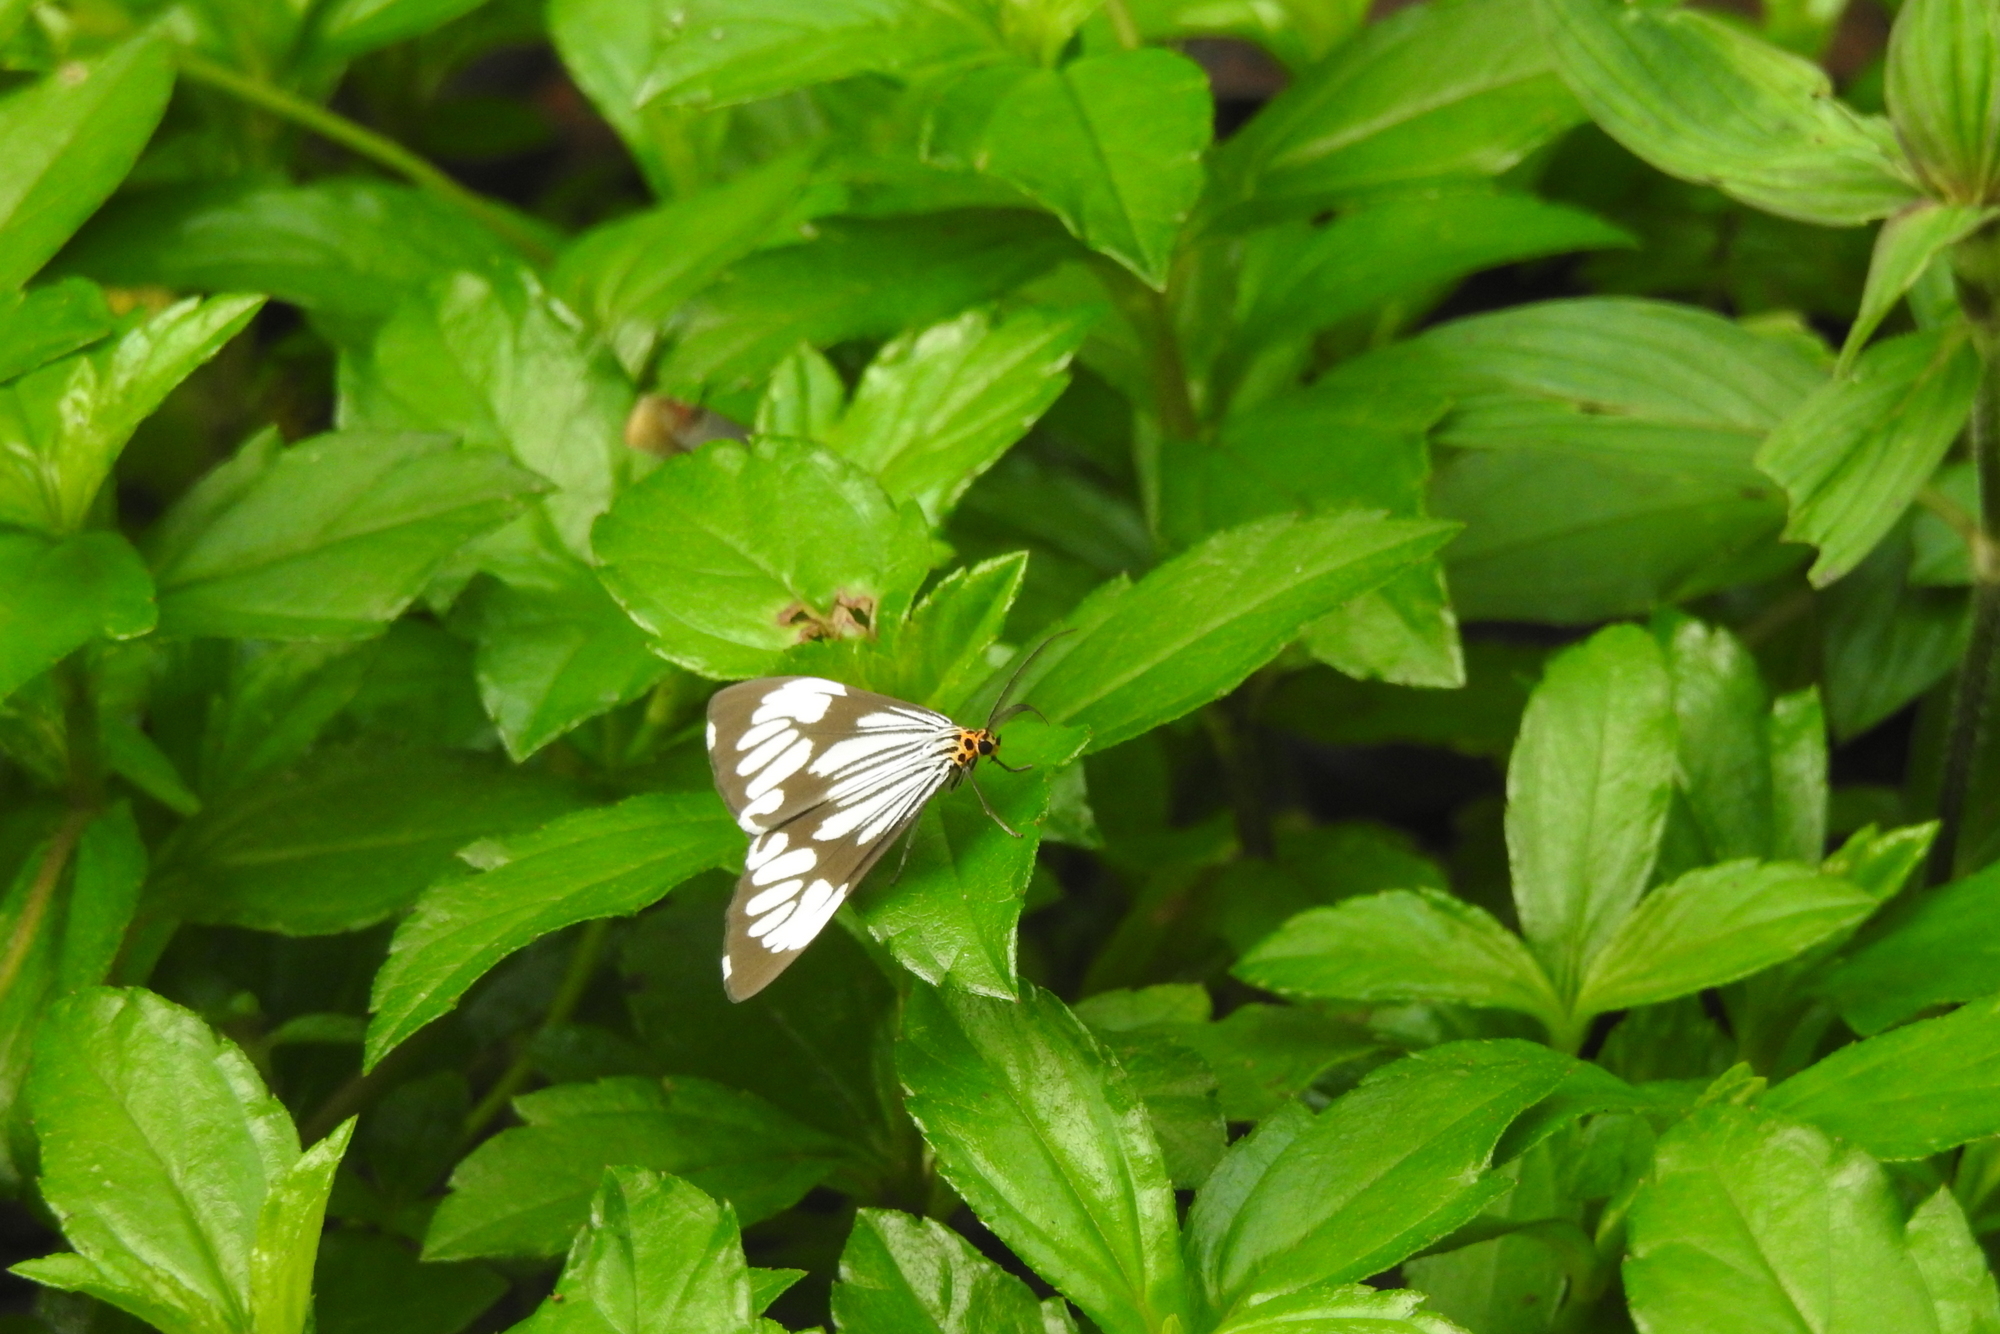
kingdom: Animalia
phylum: Arthropoda
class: Insecta
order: Lepidoptera
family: Erebidae
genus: Nyctemera
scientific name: Nyctemera coleta
